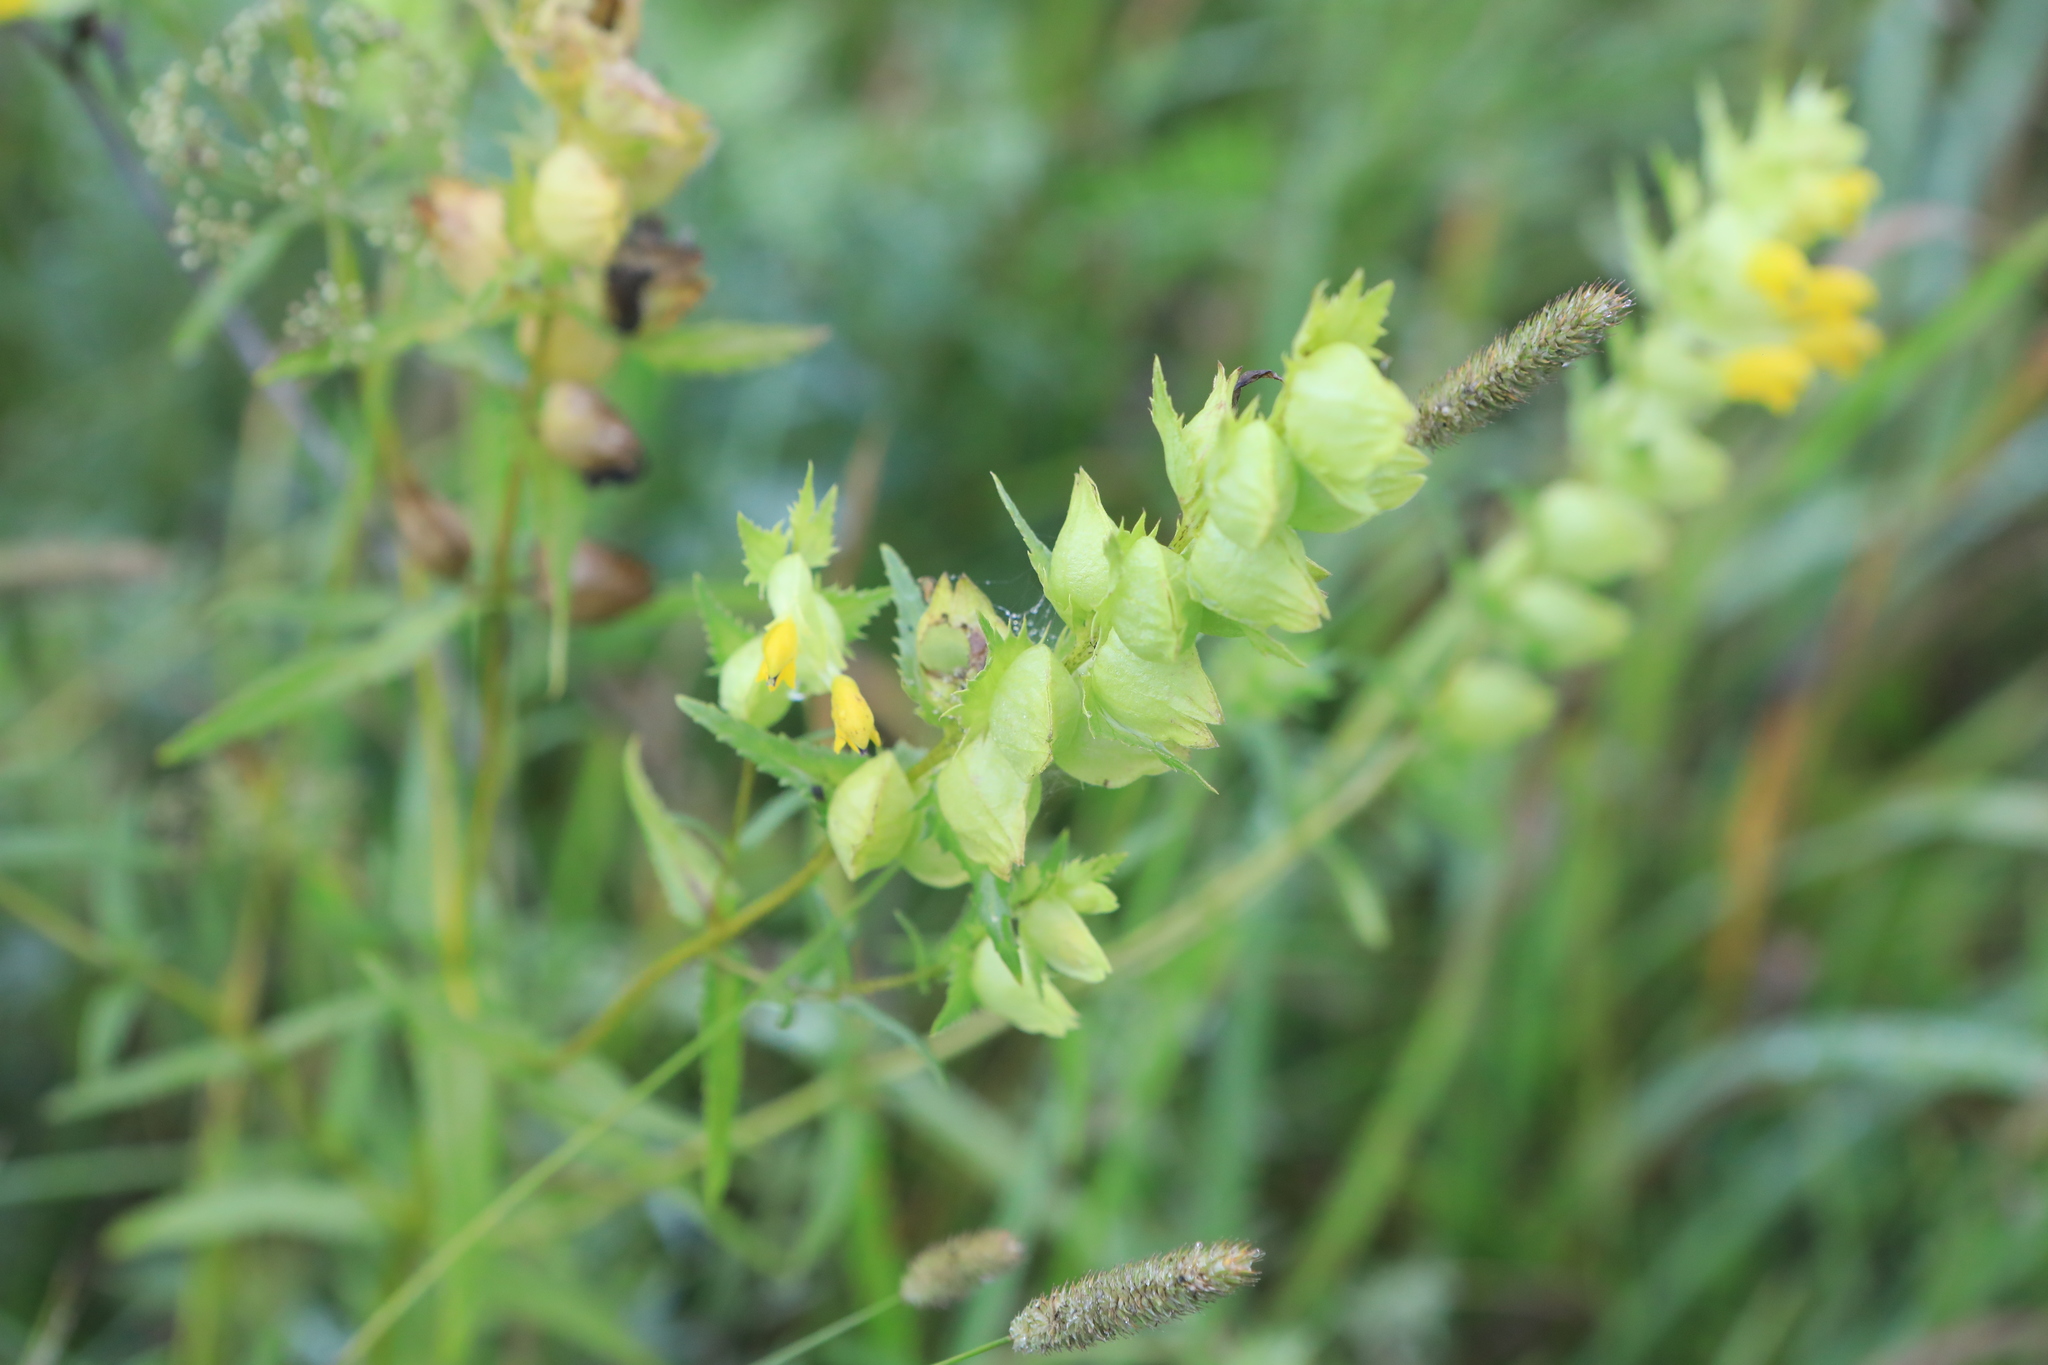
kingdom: Plantae
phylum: Tracheophyta
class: Magnoliopsida
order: Lamiales
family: Orobanchaceae
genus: Rhinanthus
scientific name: Rhinanthus serotinus
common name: Late-flowering yellow rattle
